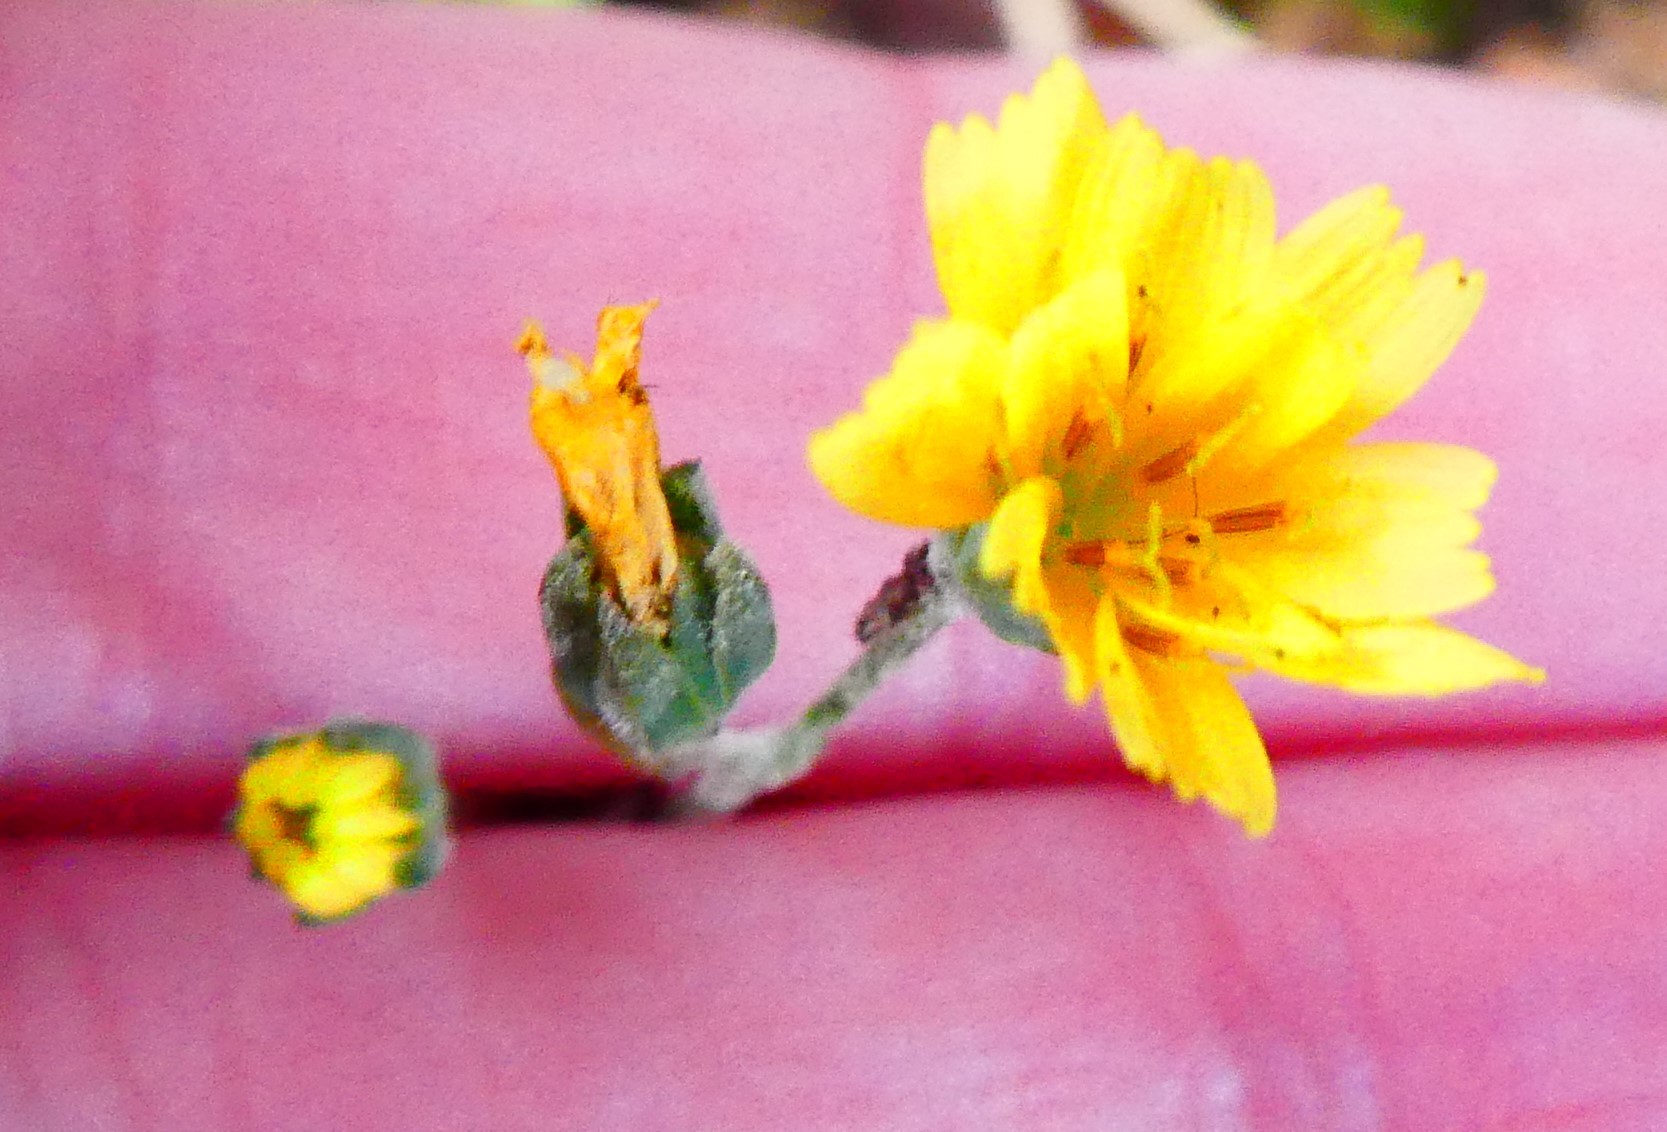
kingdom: Plantae
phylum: Tracheophyta
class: Magnoliopsida
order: Asterales
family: Asteraceae
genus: Lapsana
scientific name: Lapsana communis
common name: Nipplewort
